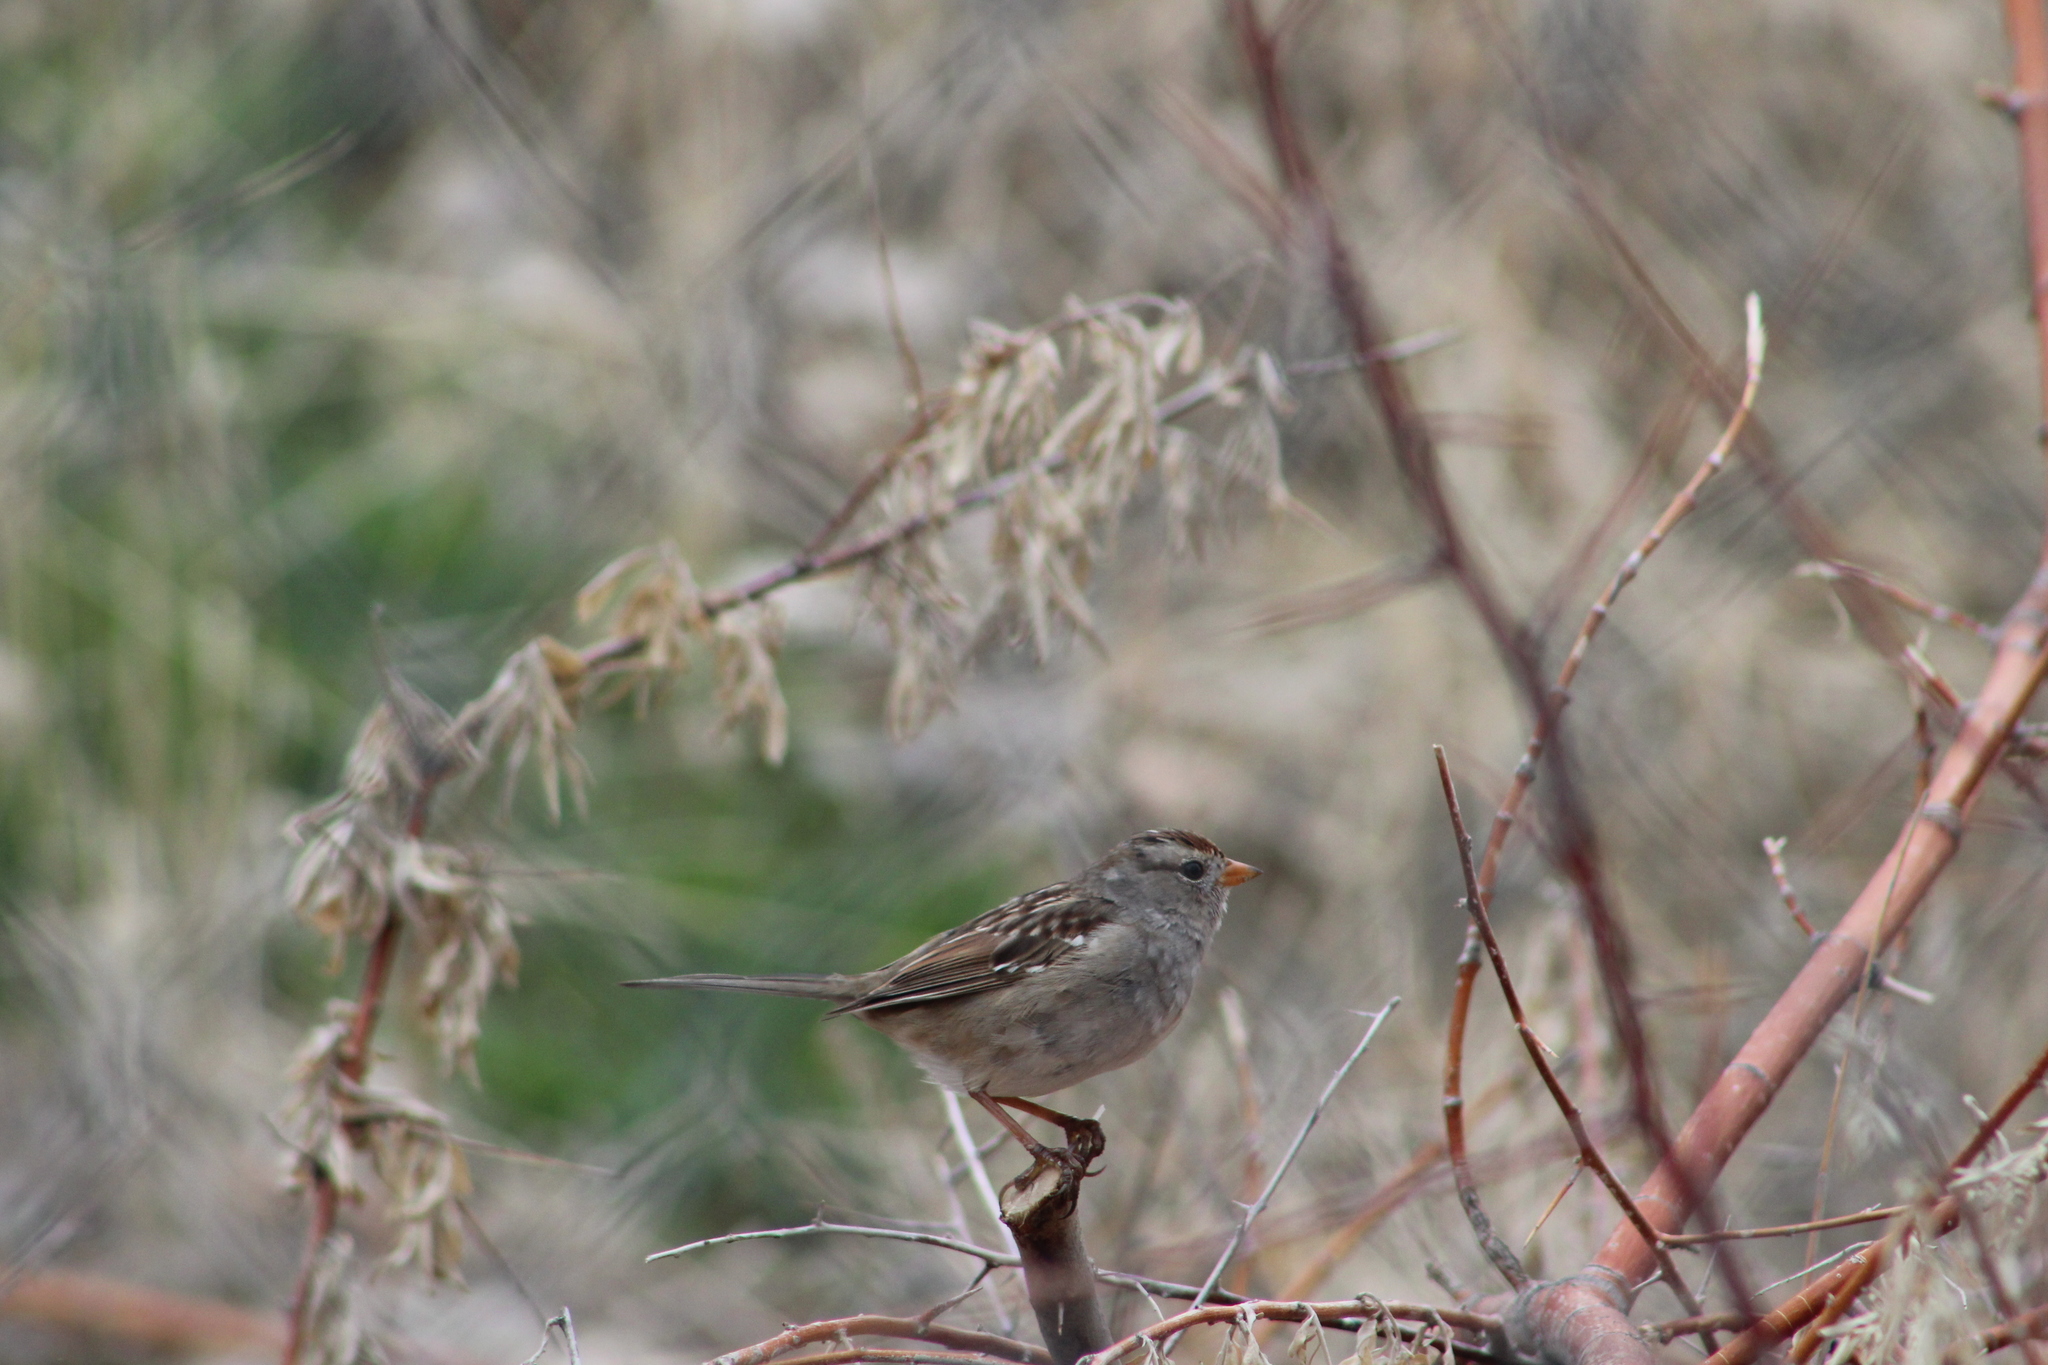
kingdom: Animalia
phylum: Chordata
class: Aves
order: Passeriformes
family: Passerellidae
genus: Zonotrichia
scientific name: Zonotrichia leucophrys
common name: White-crowned sparrow
